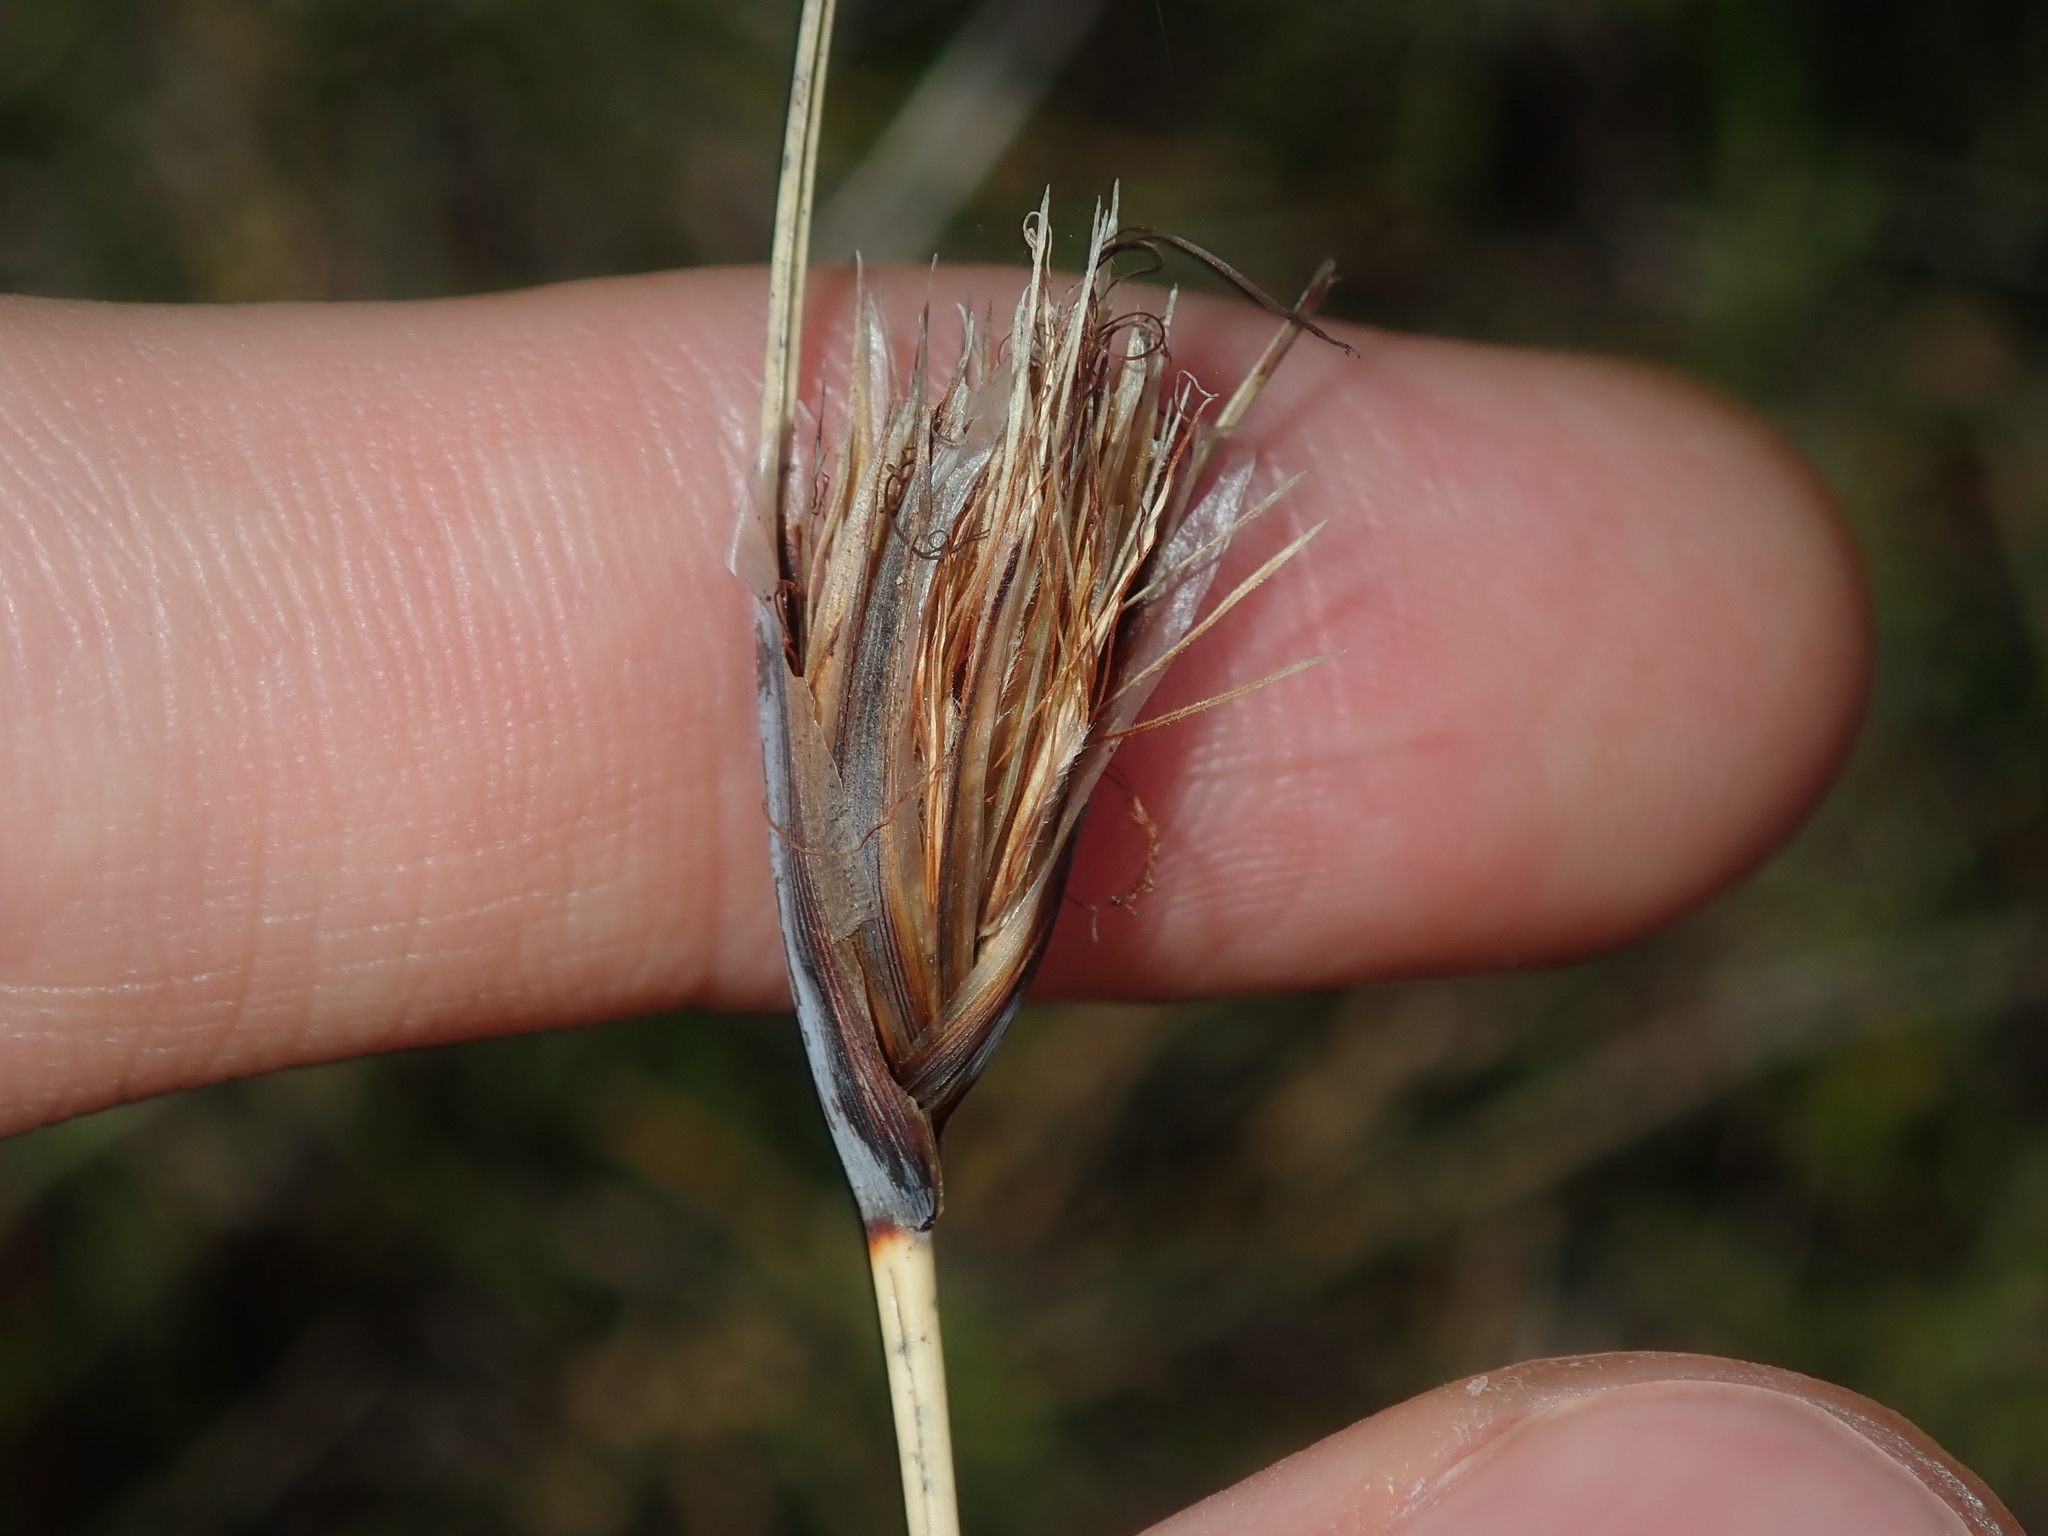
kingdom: Plantae
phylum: Tracheophyta
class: Liliopsida
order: Poales
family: Cyperaceae
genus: Ptilothrix
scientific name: Ptilothrix deusta
